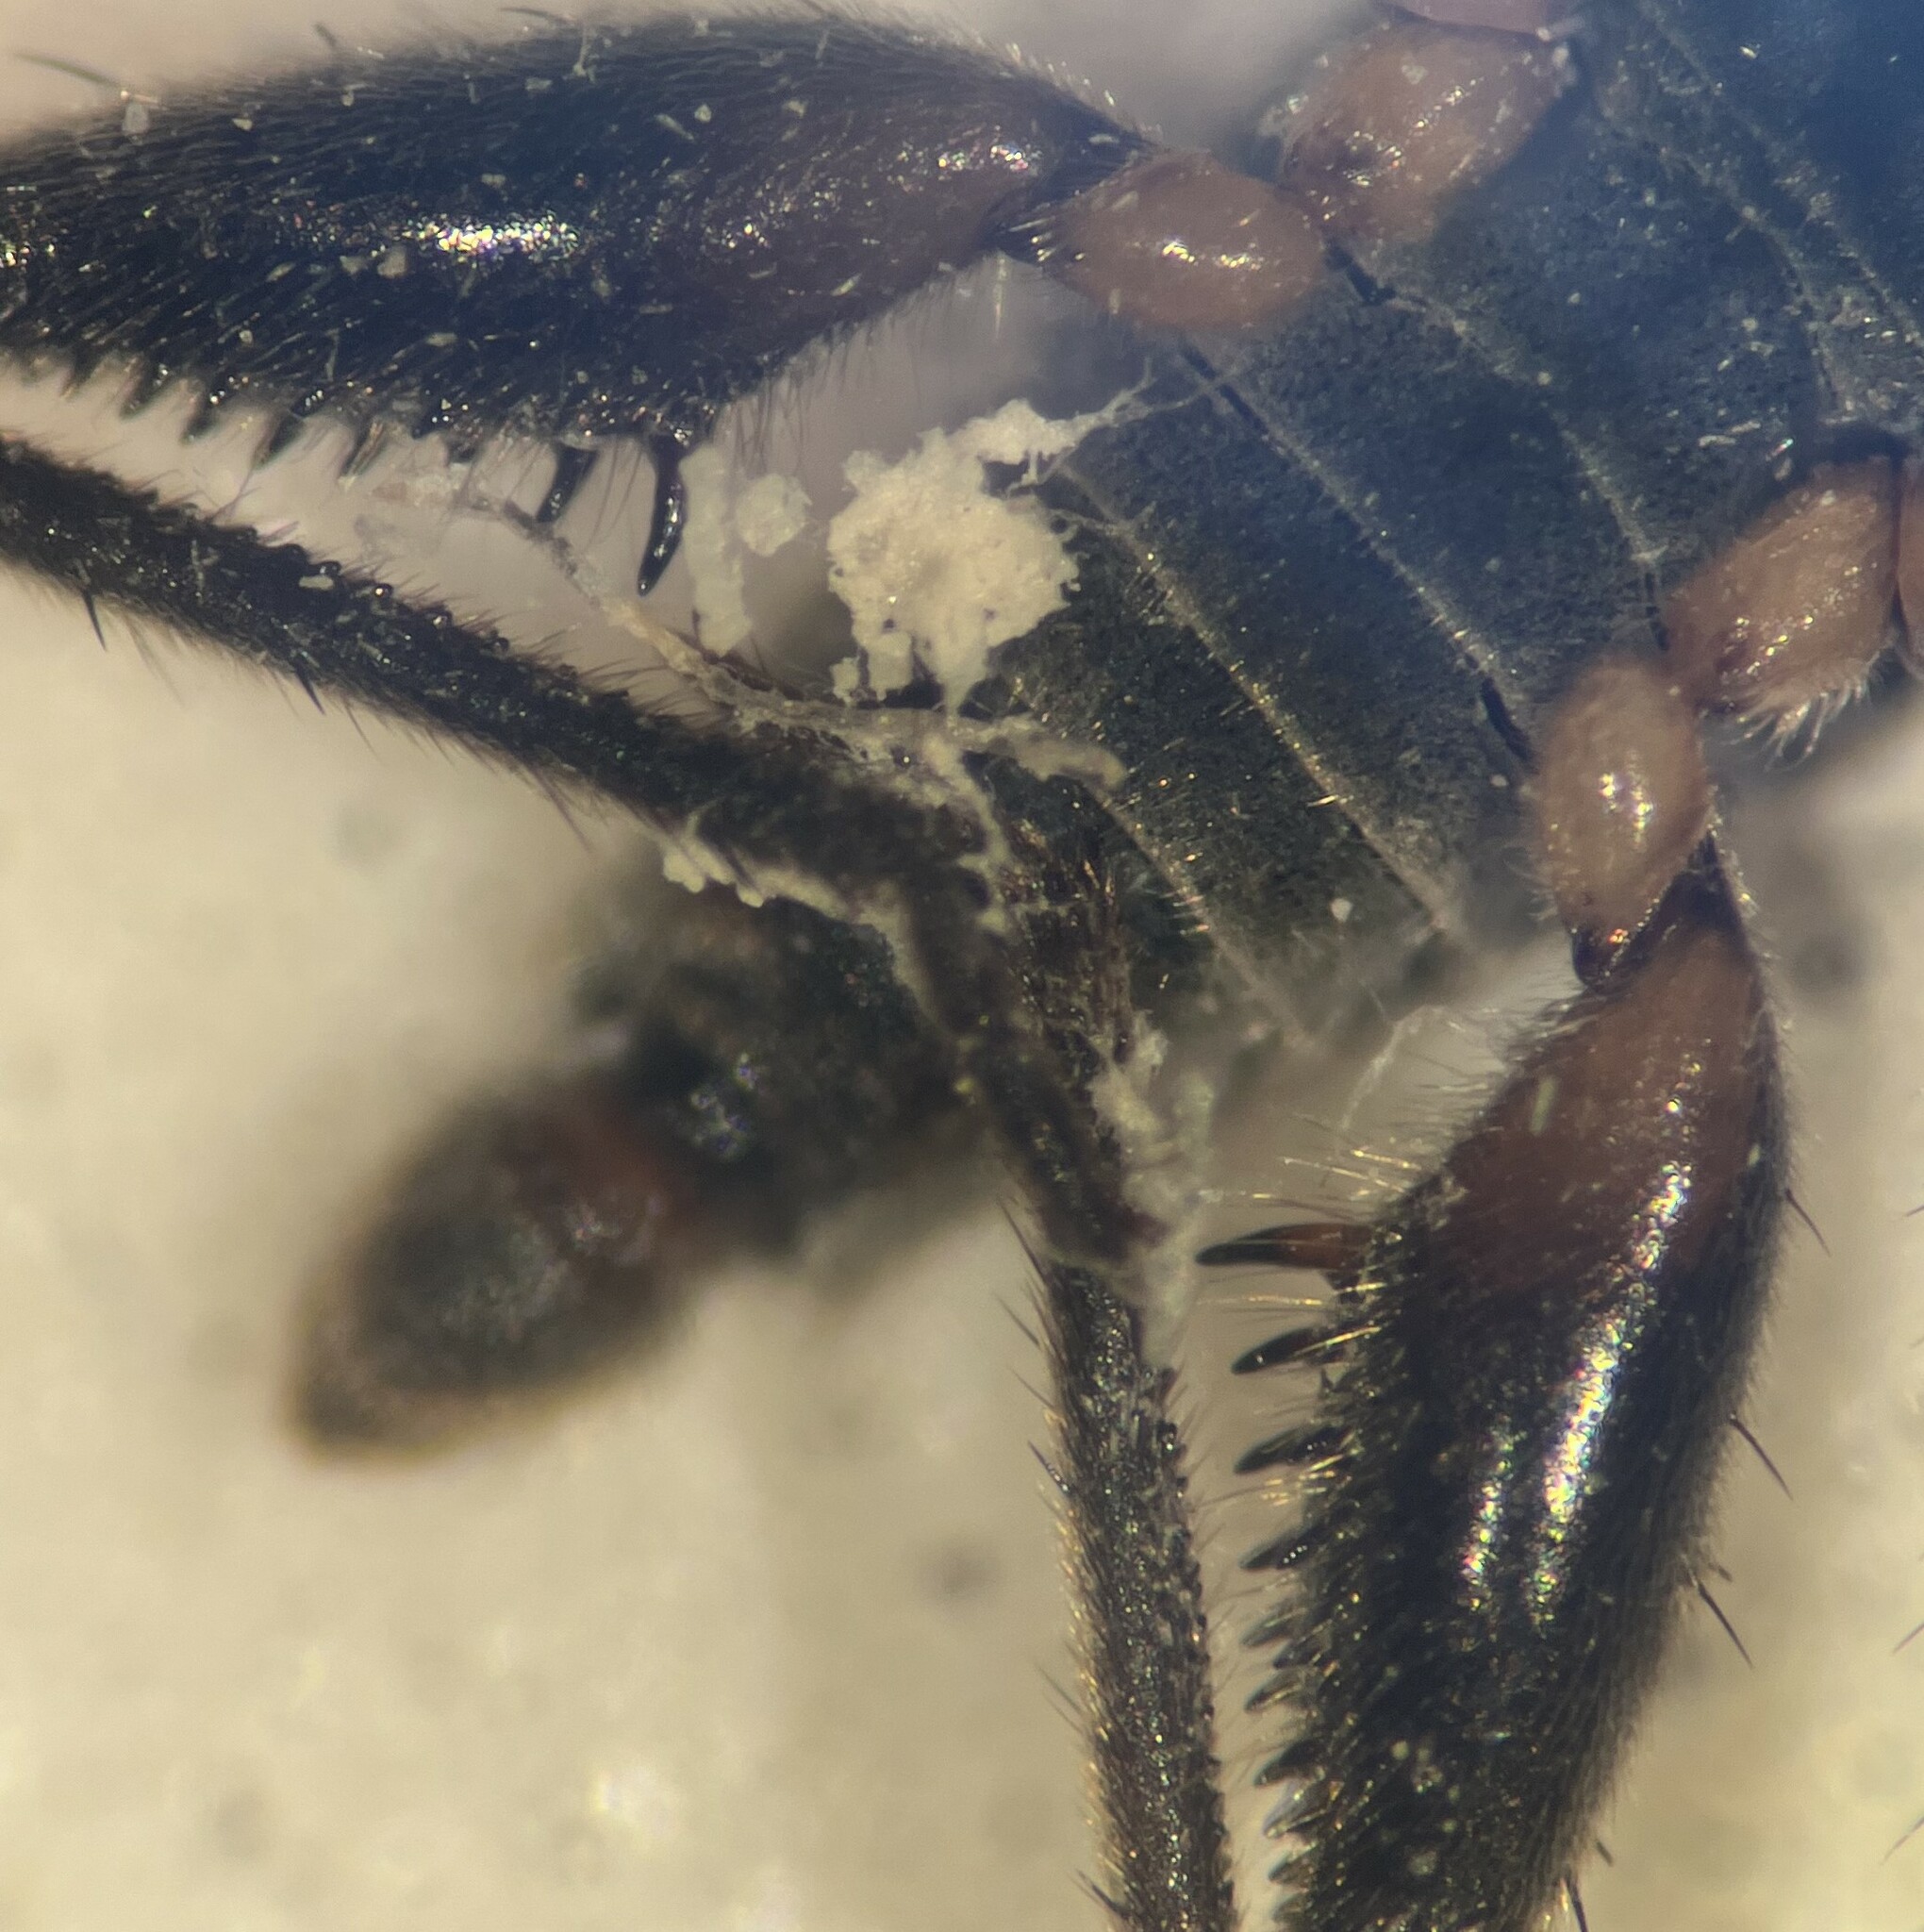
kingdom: Animalia
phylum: Arthropoda
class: Insecta
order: Hemiptera
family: Veliidae
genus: Rhagovelia
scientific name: Rhagovelia novahispaniae
